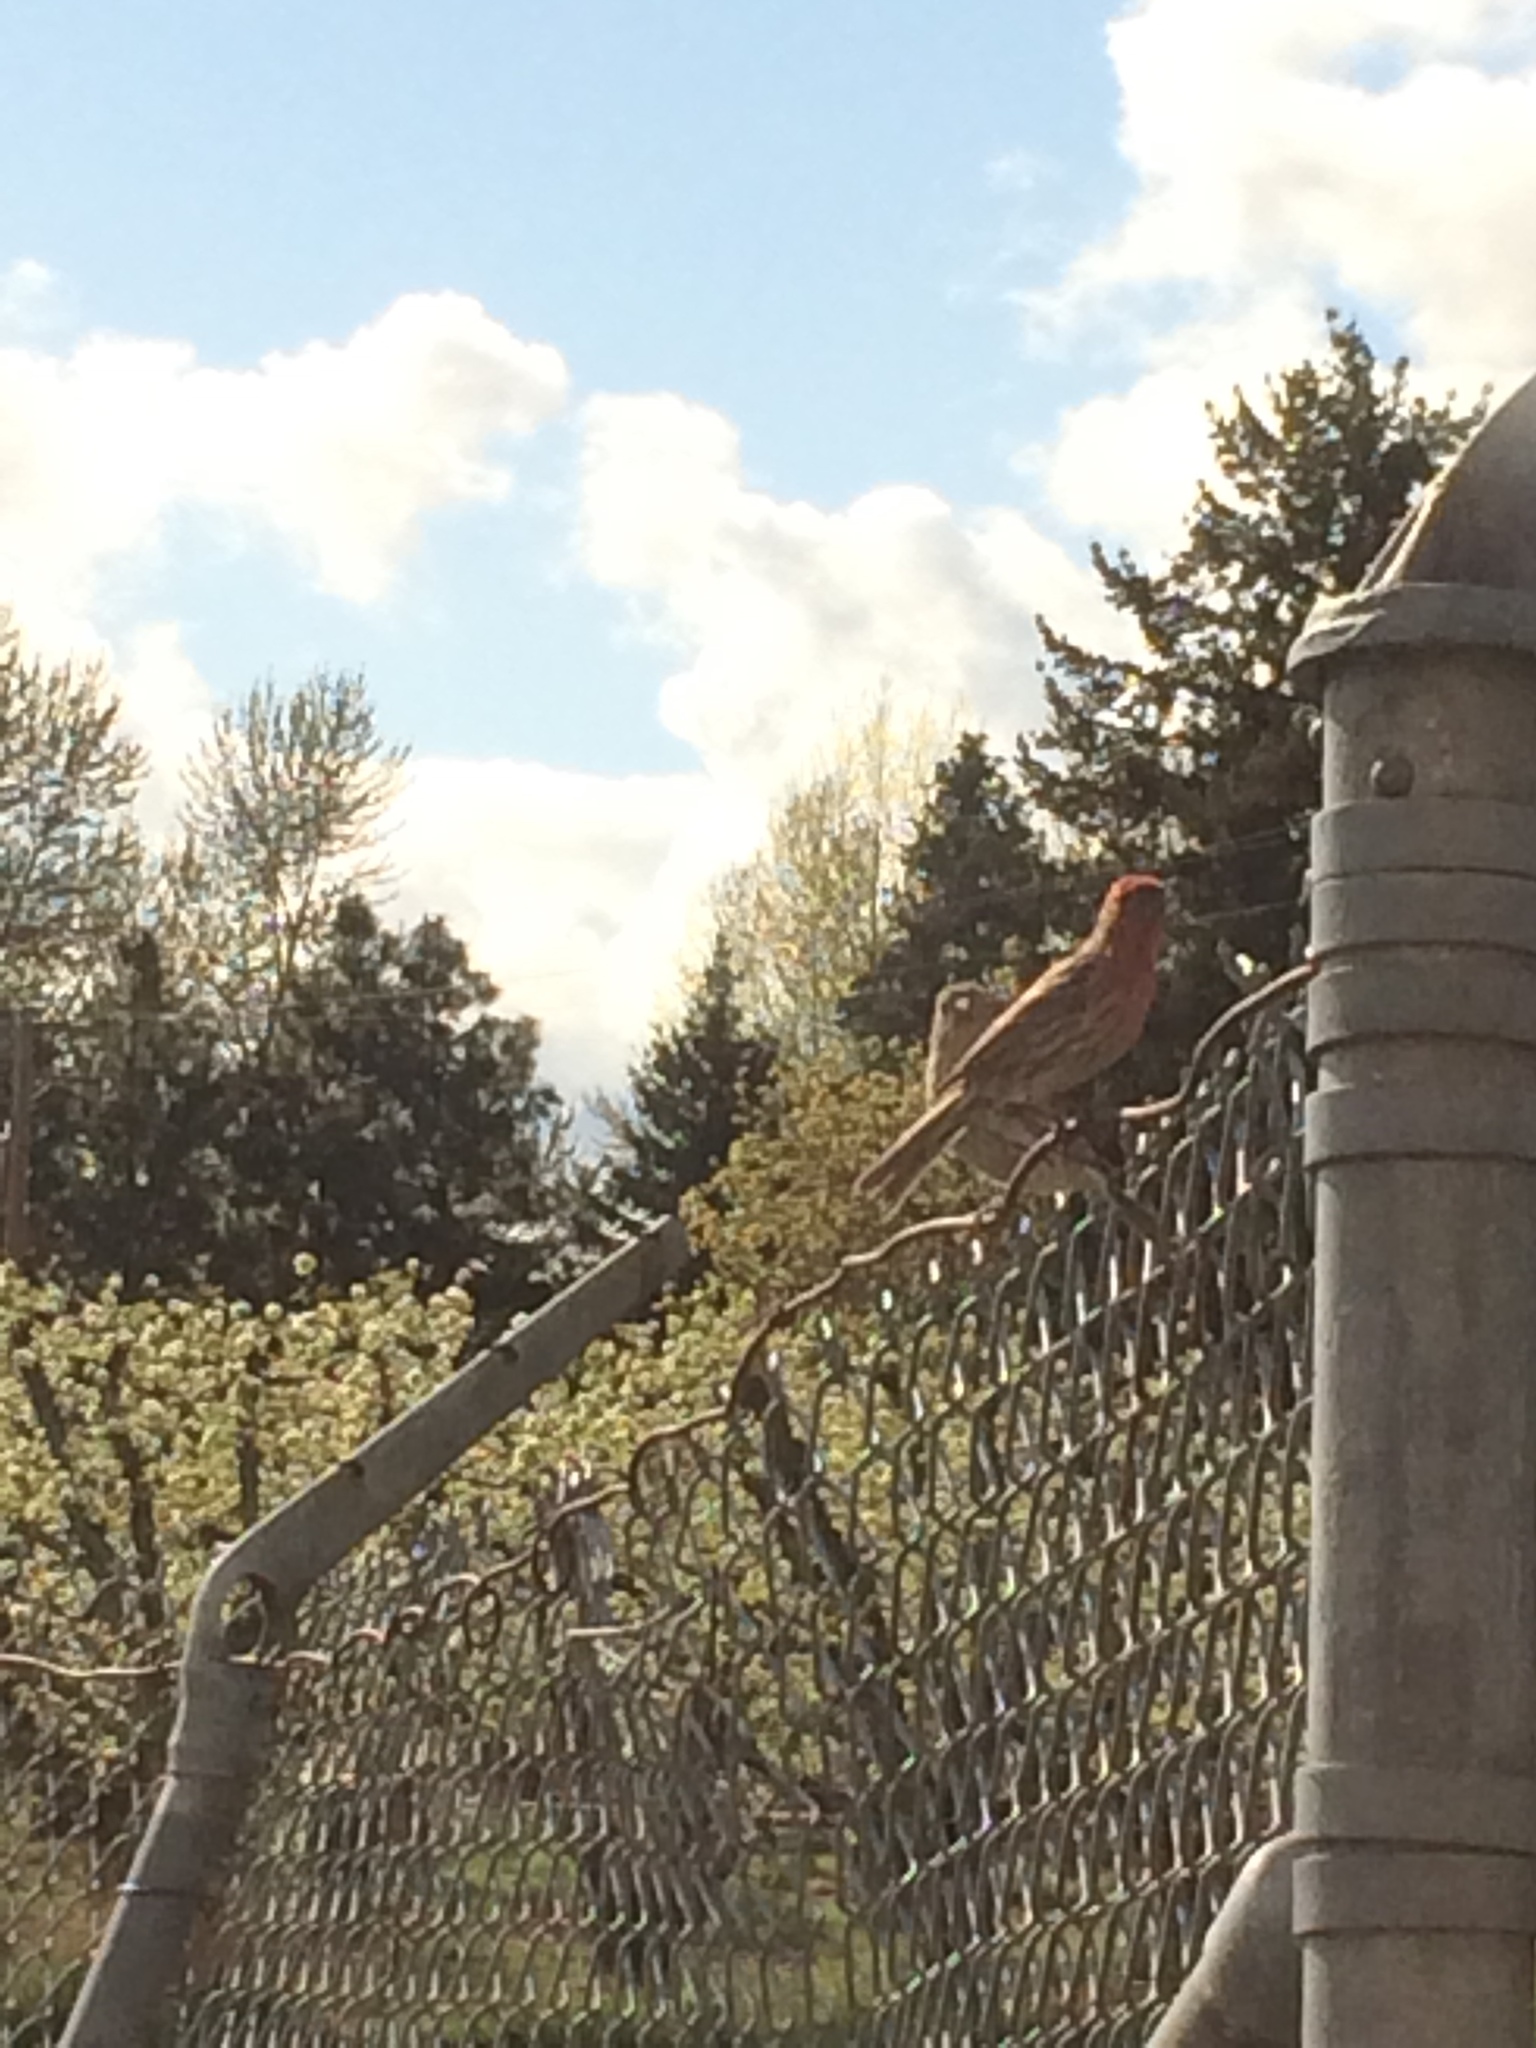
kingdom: Animalia
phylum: Chordata
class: Aves
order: Passeriformes
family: Fringillidae
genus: Haemorhous
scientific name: Haemorhous mexicanus
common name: House finch
